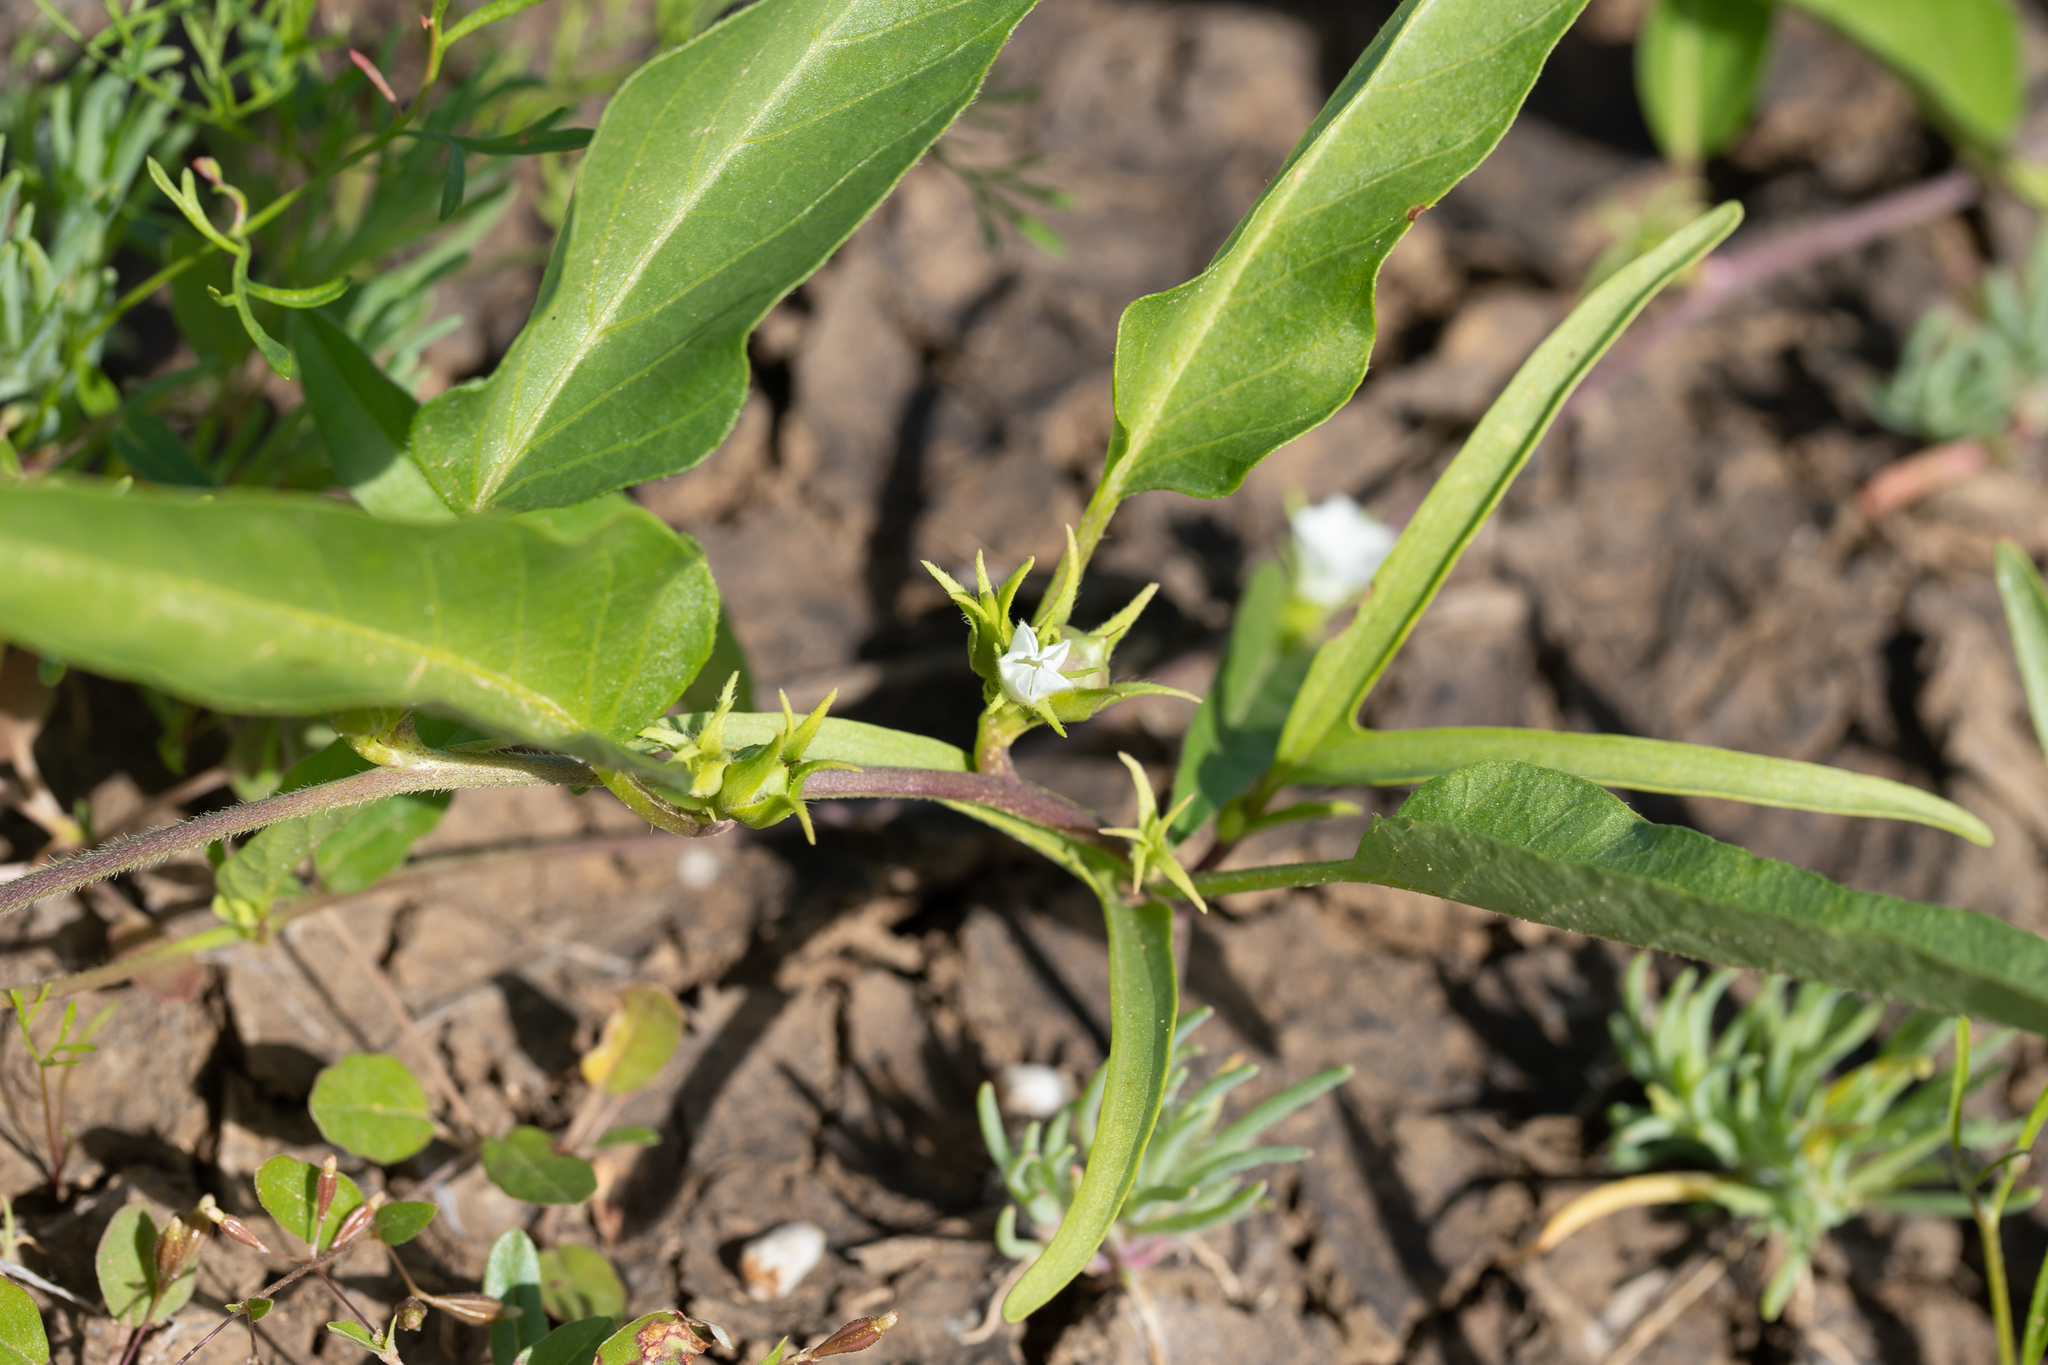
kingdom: Plantae
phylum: Tracheophyta
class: Magnoliopsida
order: Solanales
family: Convolvulaceae
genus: Ipomoea
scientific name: Ipomoea lonchophylla
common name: Cowvine
